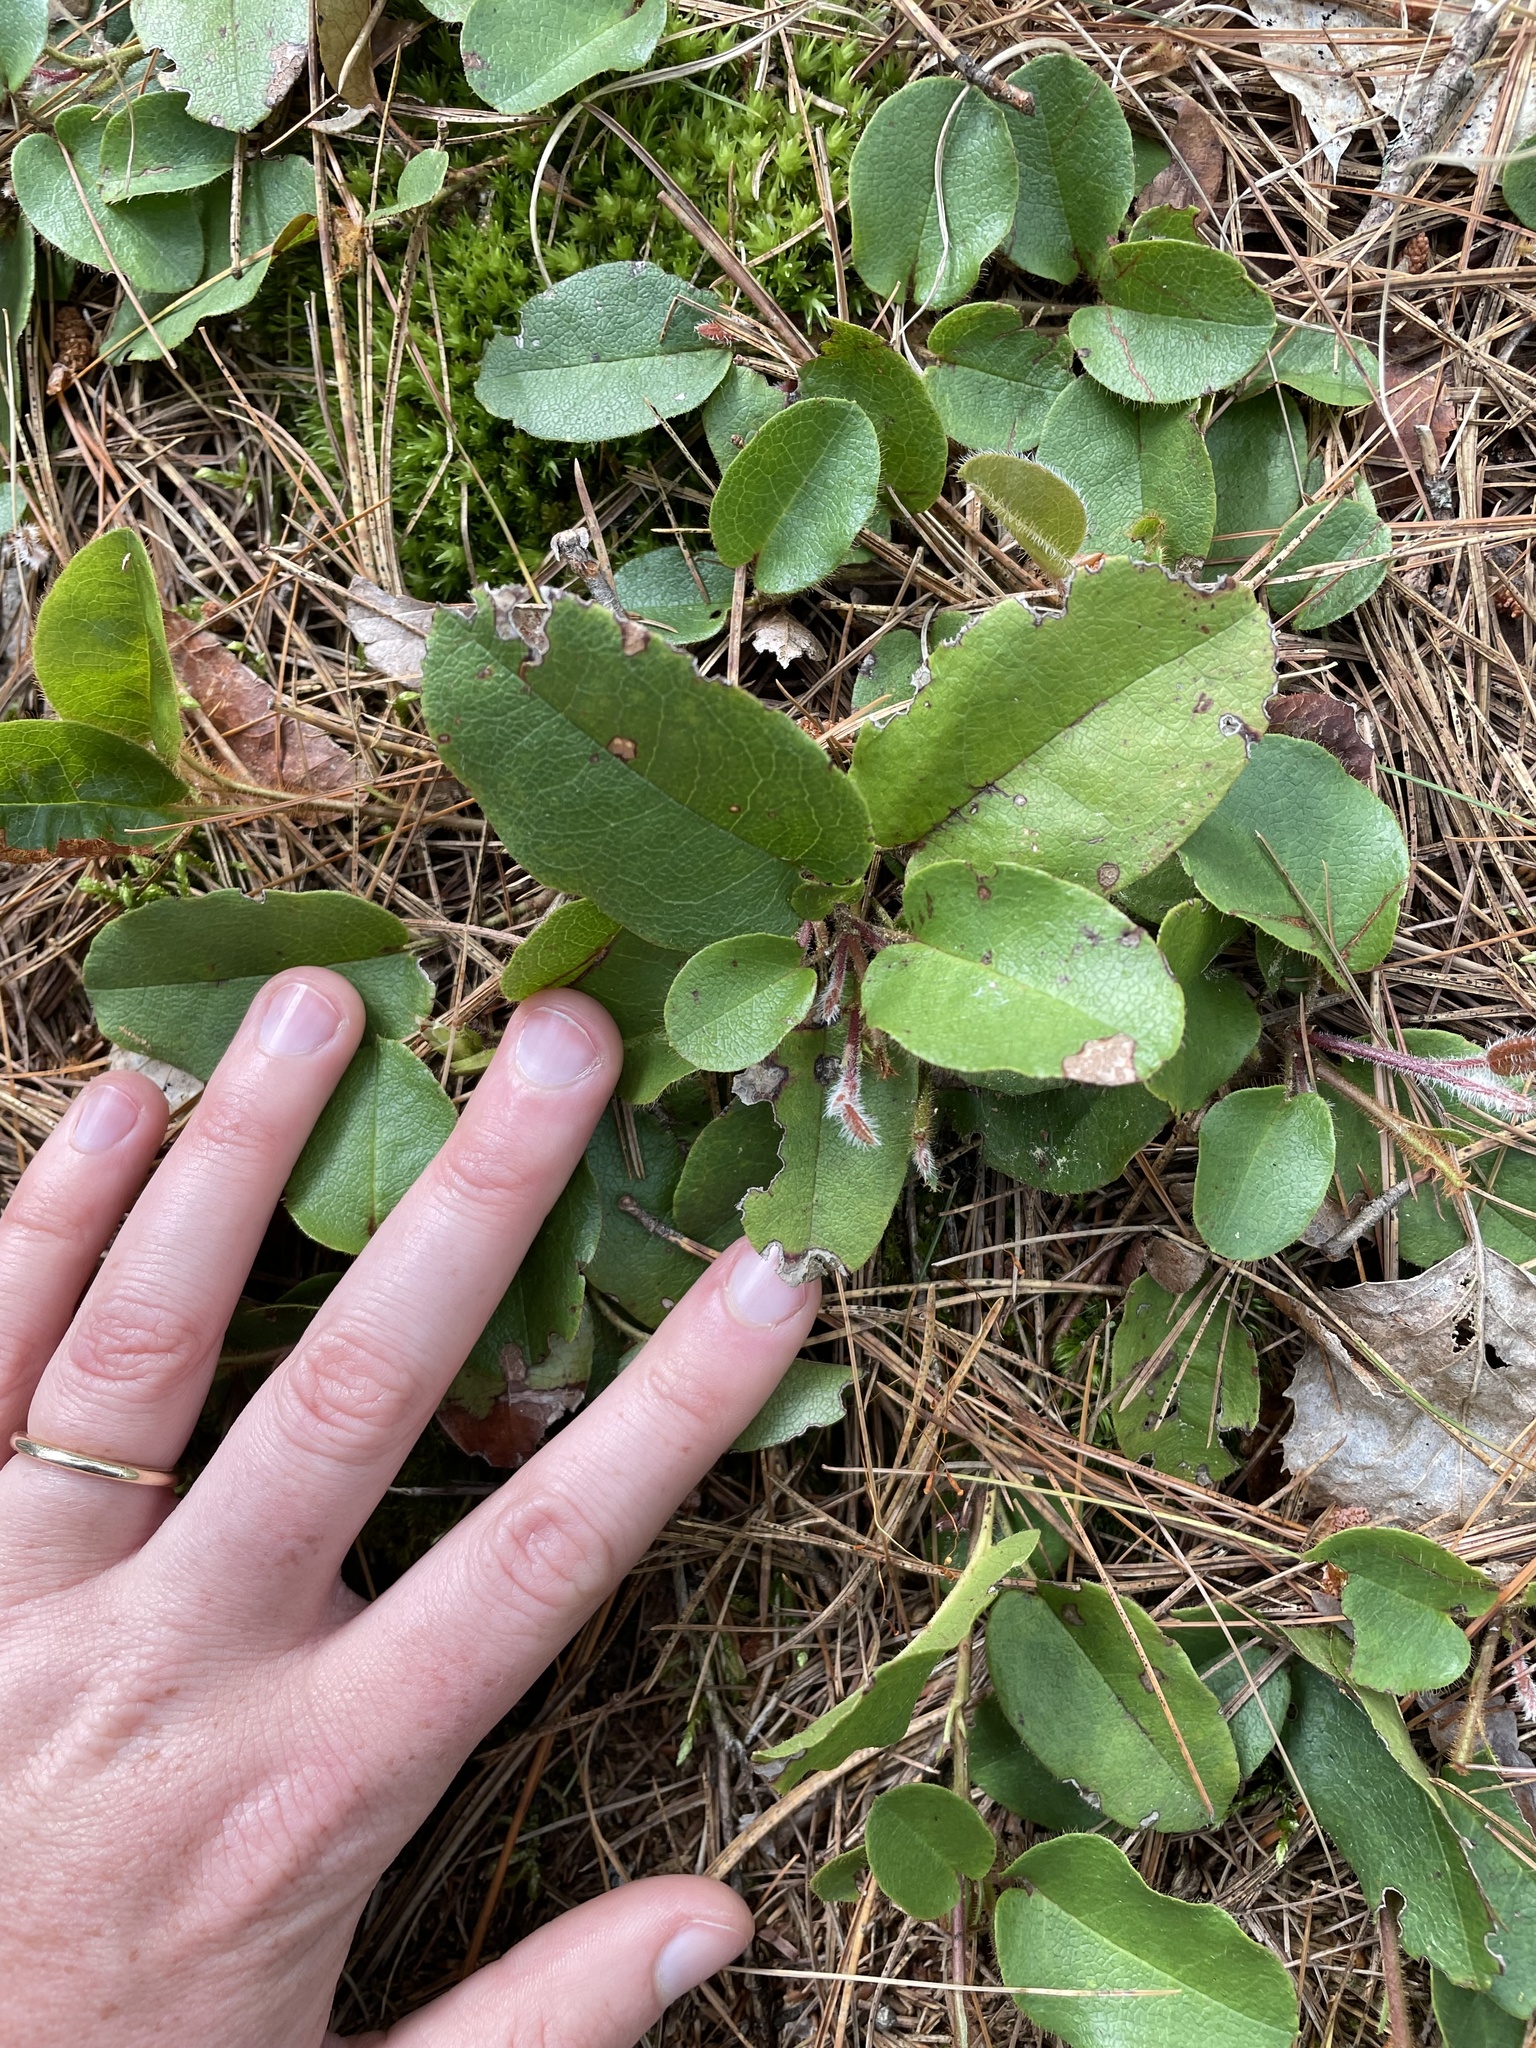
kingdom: Plantae
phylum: Tracheophyta
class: Magnoliopsida
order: Ericales
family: Ericaceae
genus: Epigaea
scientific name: Epigaea repens
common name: Gravelroot
